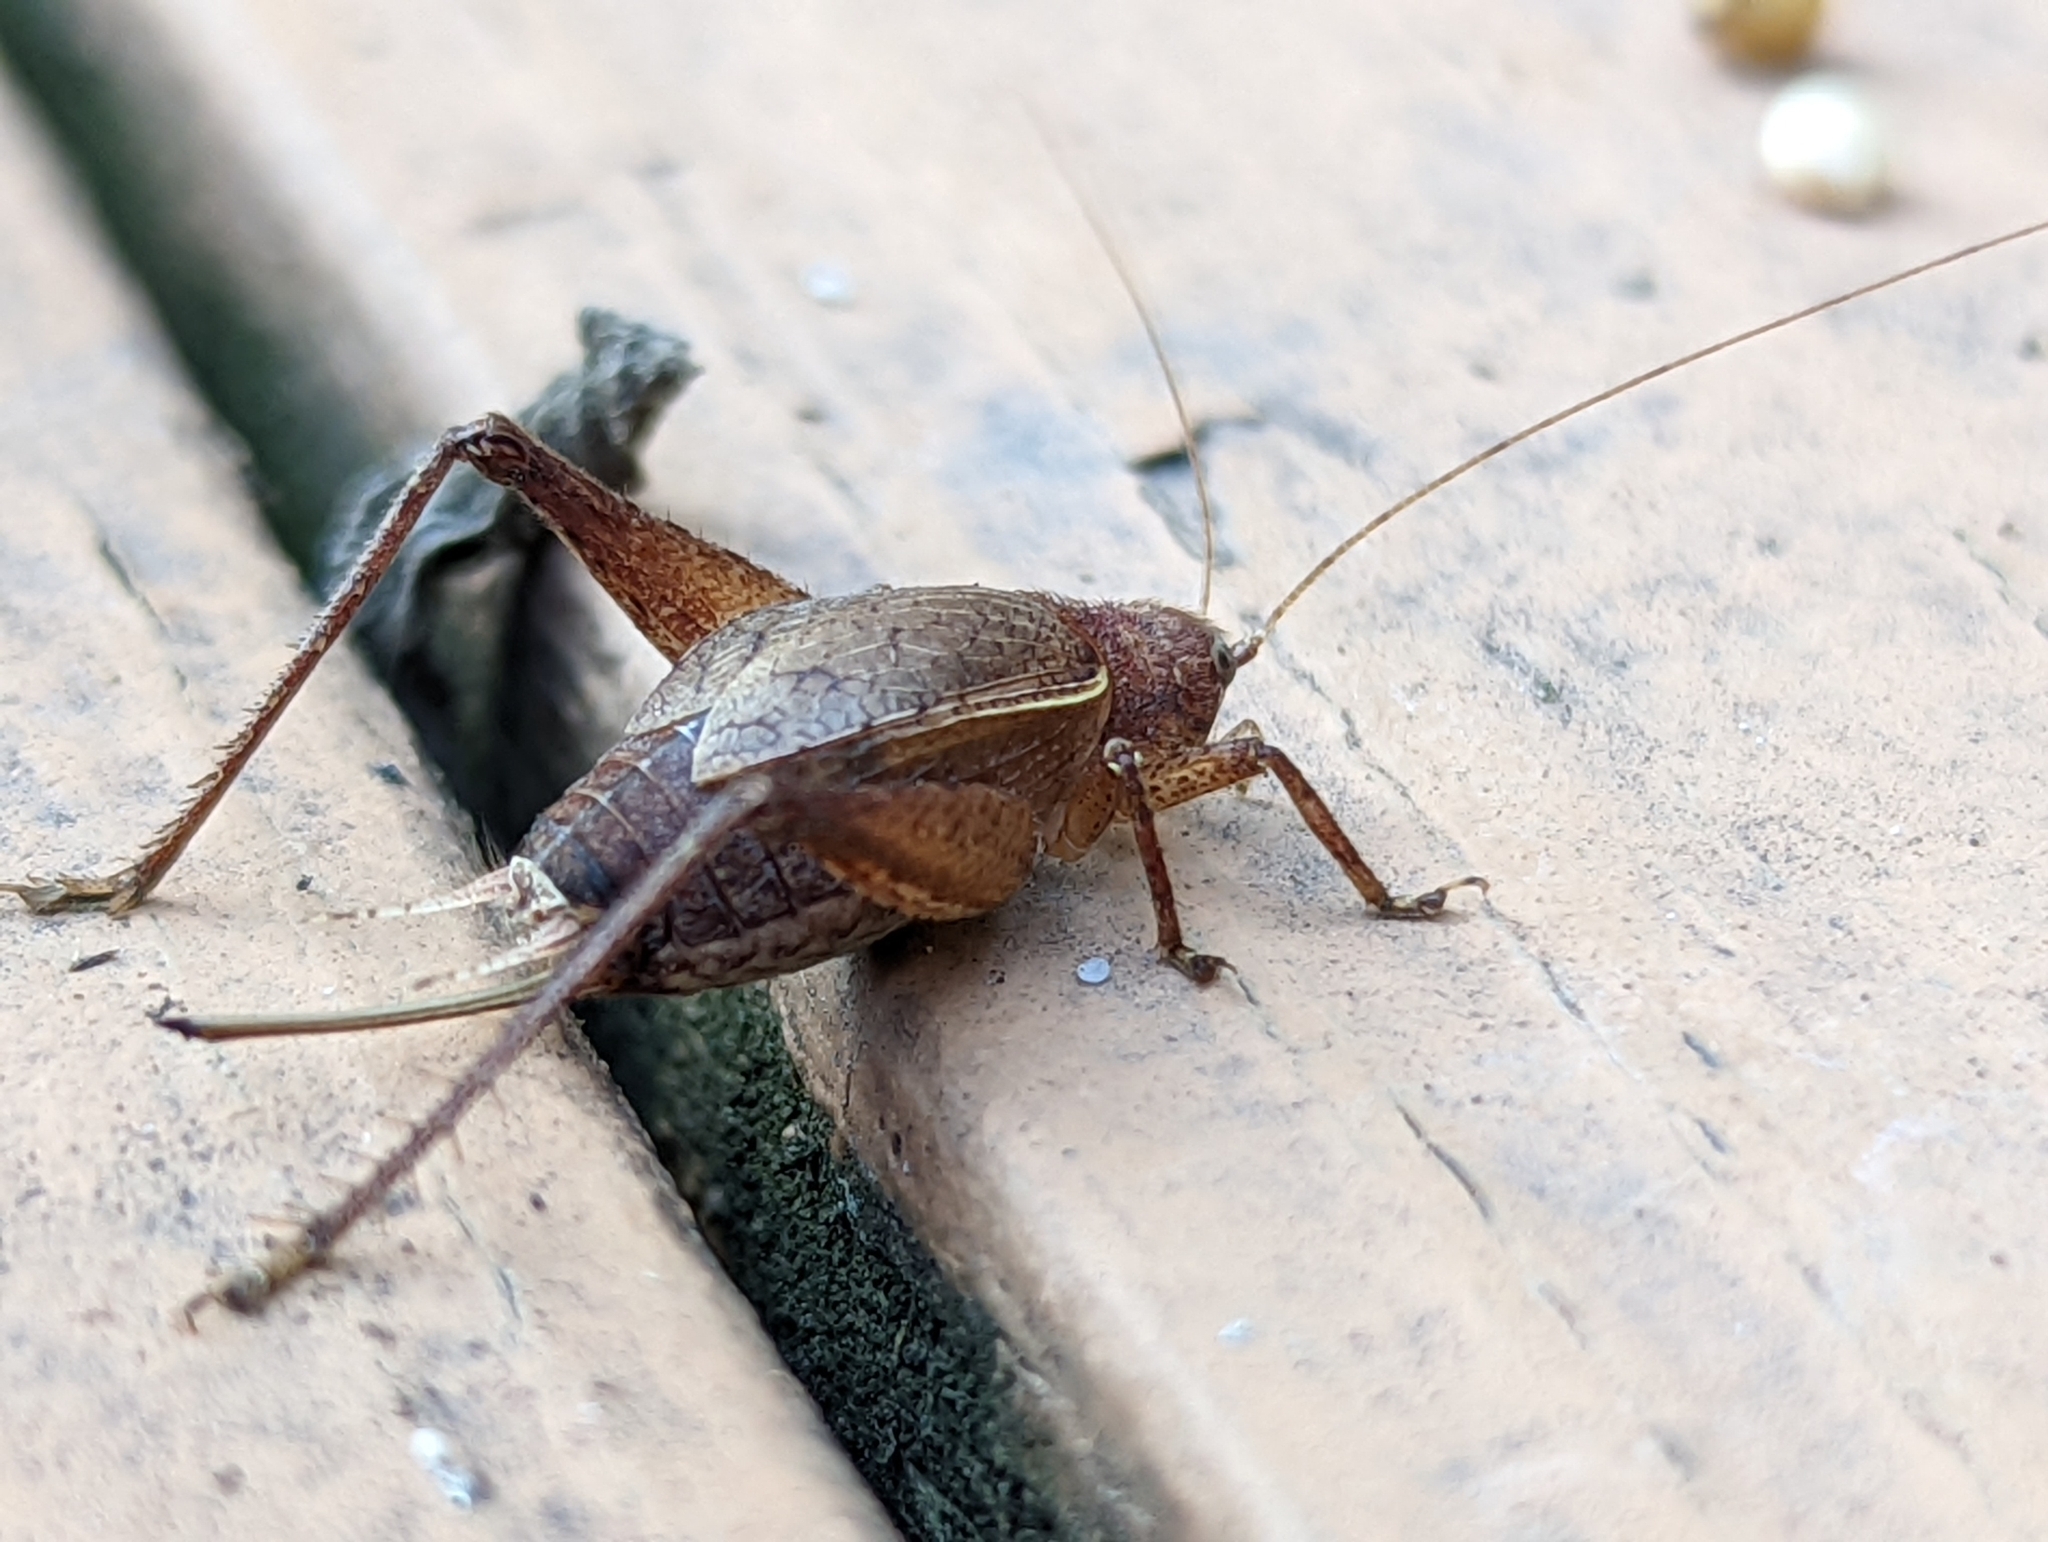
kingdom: Animalia
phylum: Arthropoda
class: Insecta
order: Orthoptera
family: Gryllidae
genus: Hapithus
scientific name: Hapithus agitator
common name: Restless bush cricket
